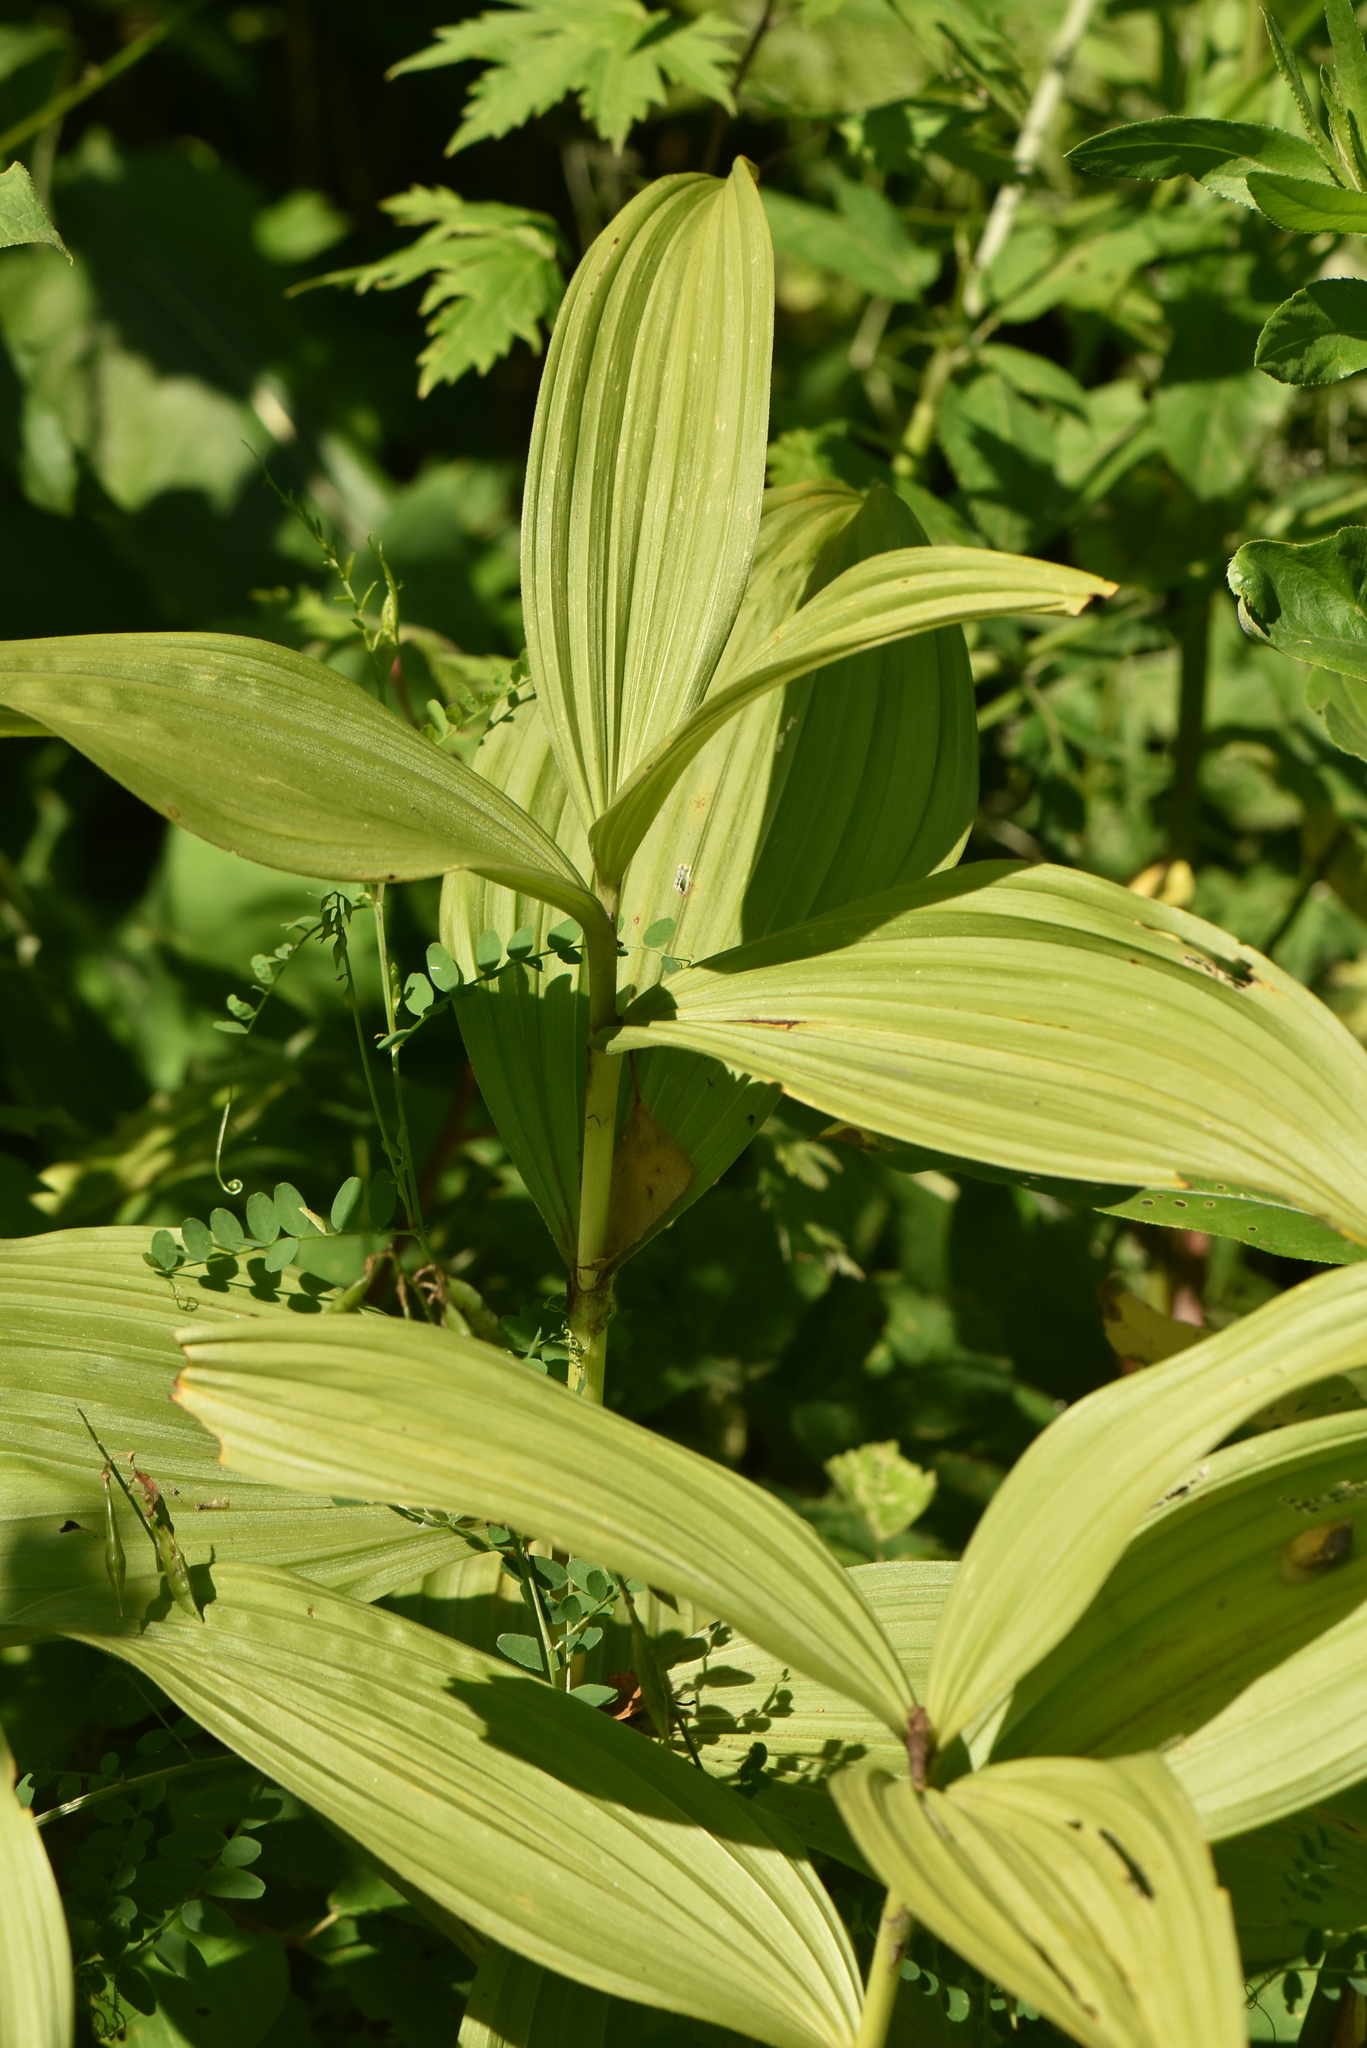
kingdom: Plantae
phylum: Tracheophyta
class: Liliopsida
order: Liliales
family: Melanthiaceae
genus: Veratrum
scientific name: Veratrum lobelianum
